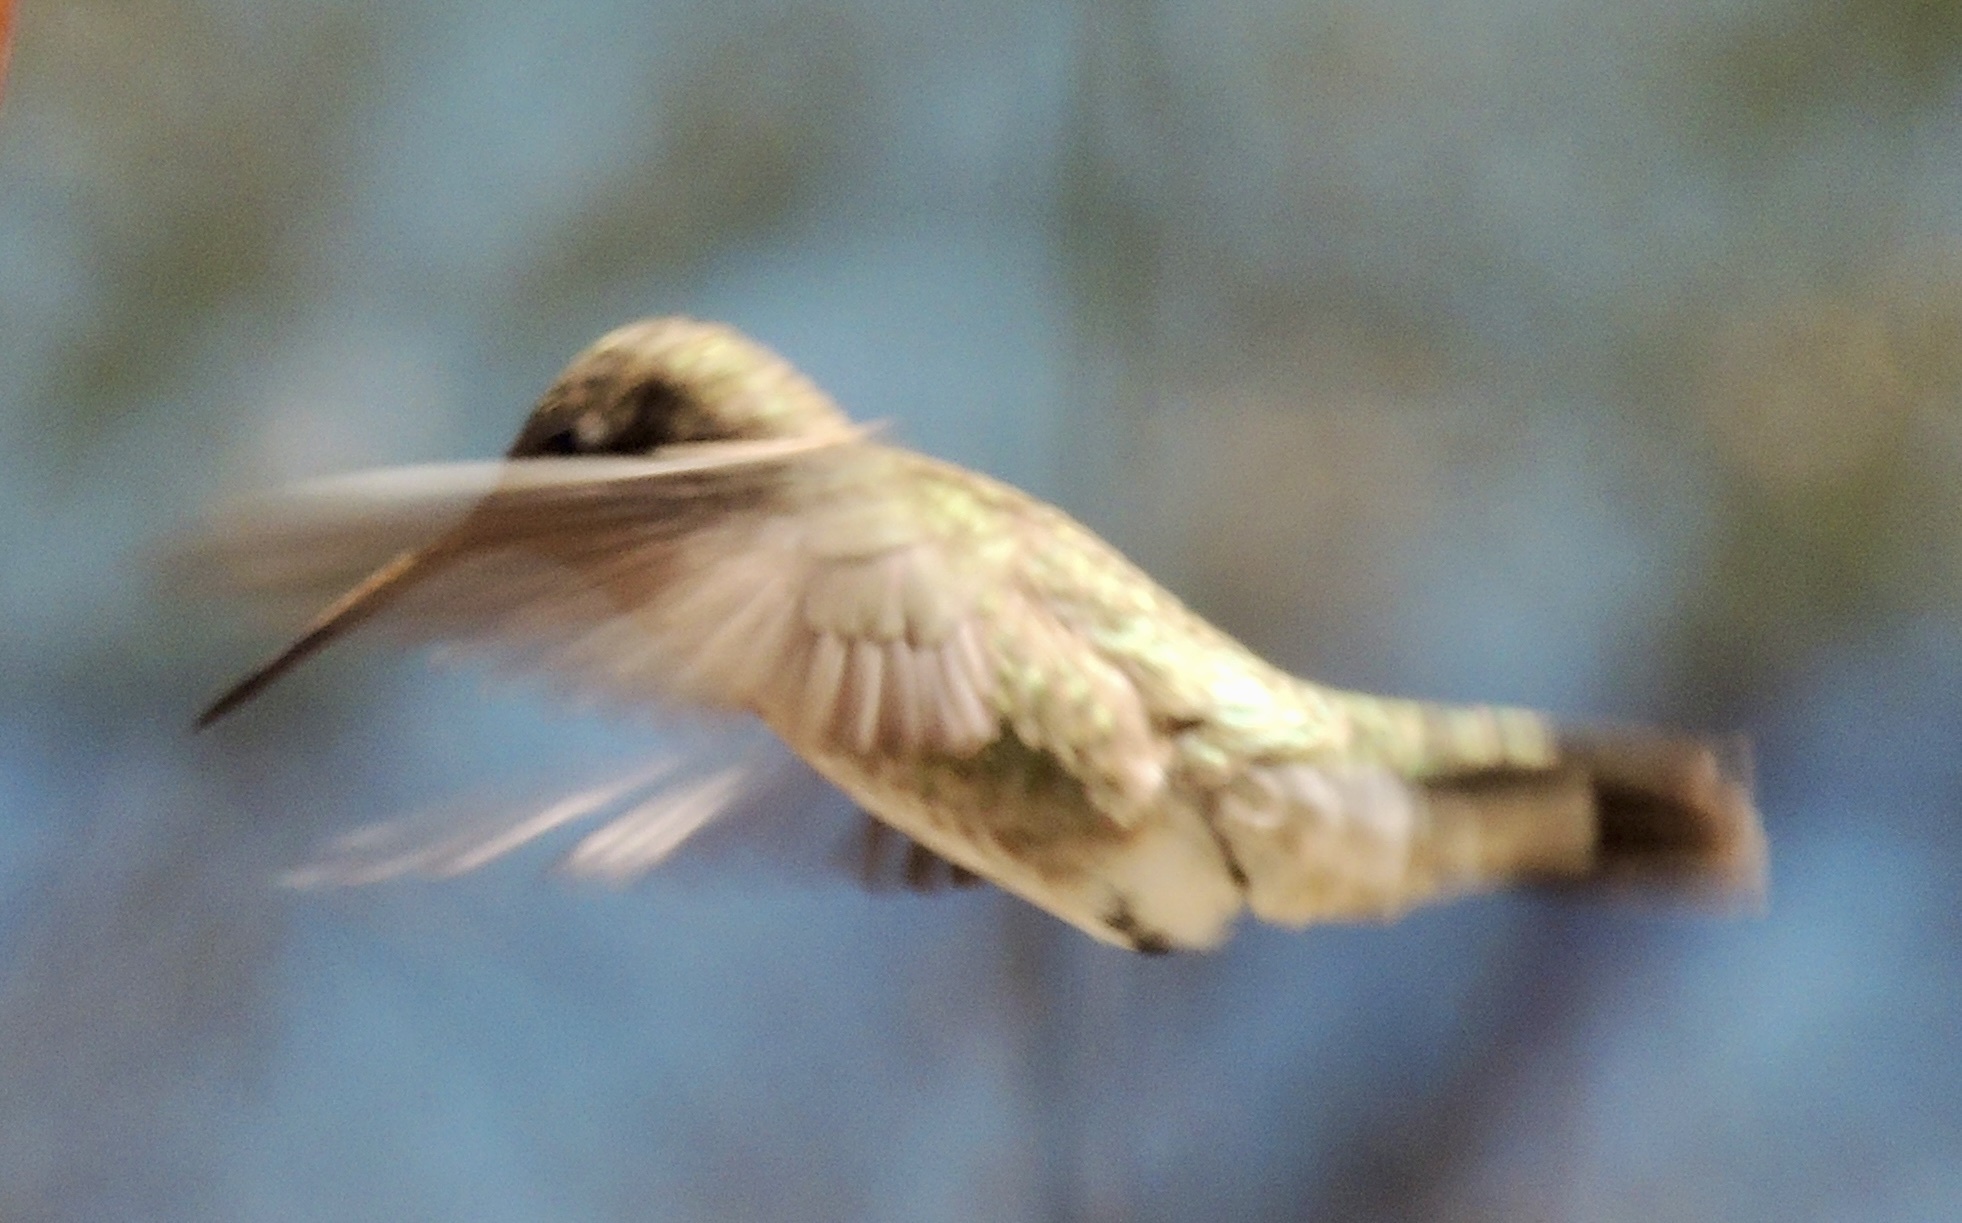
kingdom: Animalia
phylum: Chordata
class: Aves
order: Apodiformes
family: Trochilidae
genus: Calypte
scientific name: Calypte anna
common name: Anna's hummingbird
